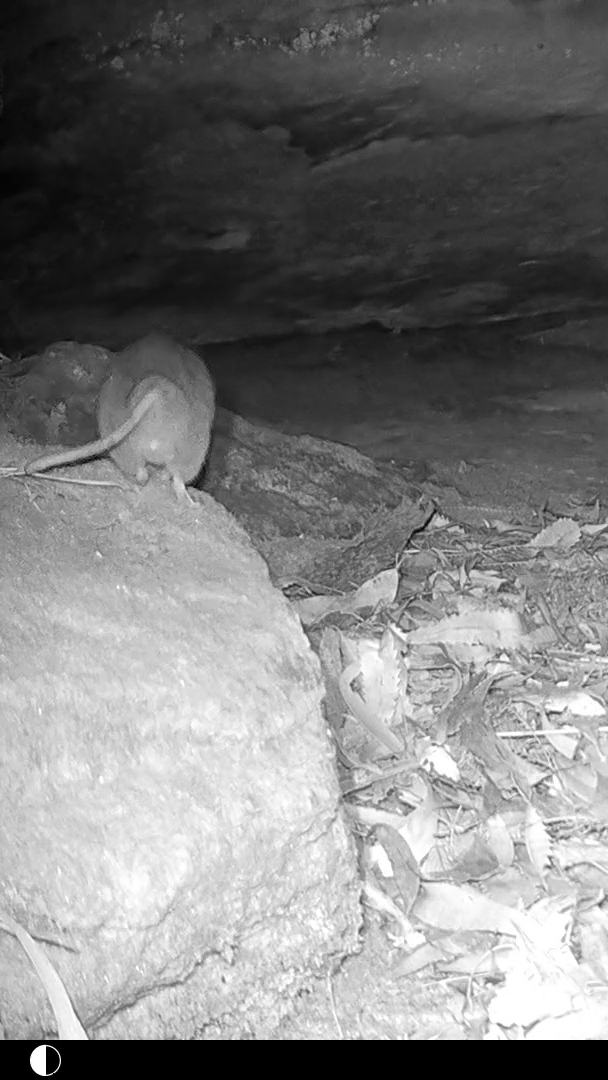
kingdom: Animalia
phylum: Chordata
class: Mammalia
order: Rodentia
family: Muridae
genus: Rattus
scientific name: Rattus fuscipes
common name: Australian bush rat
